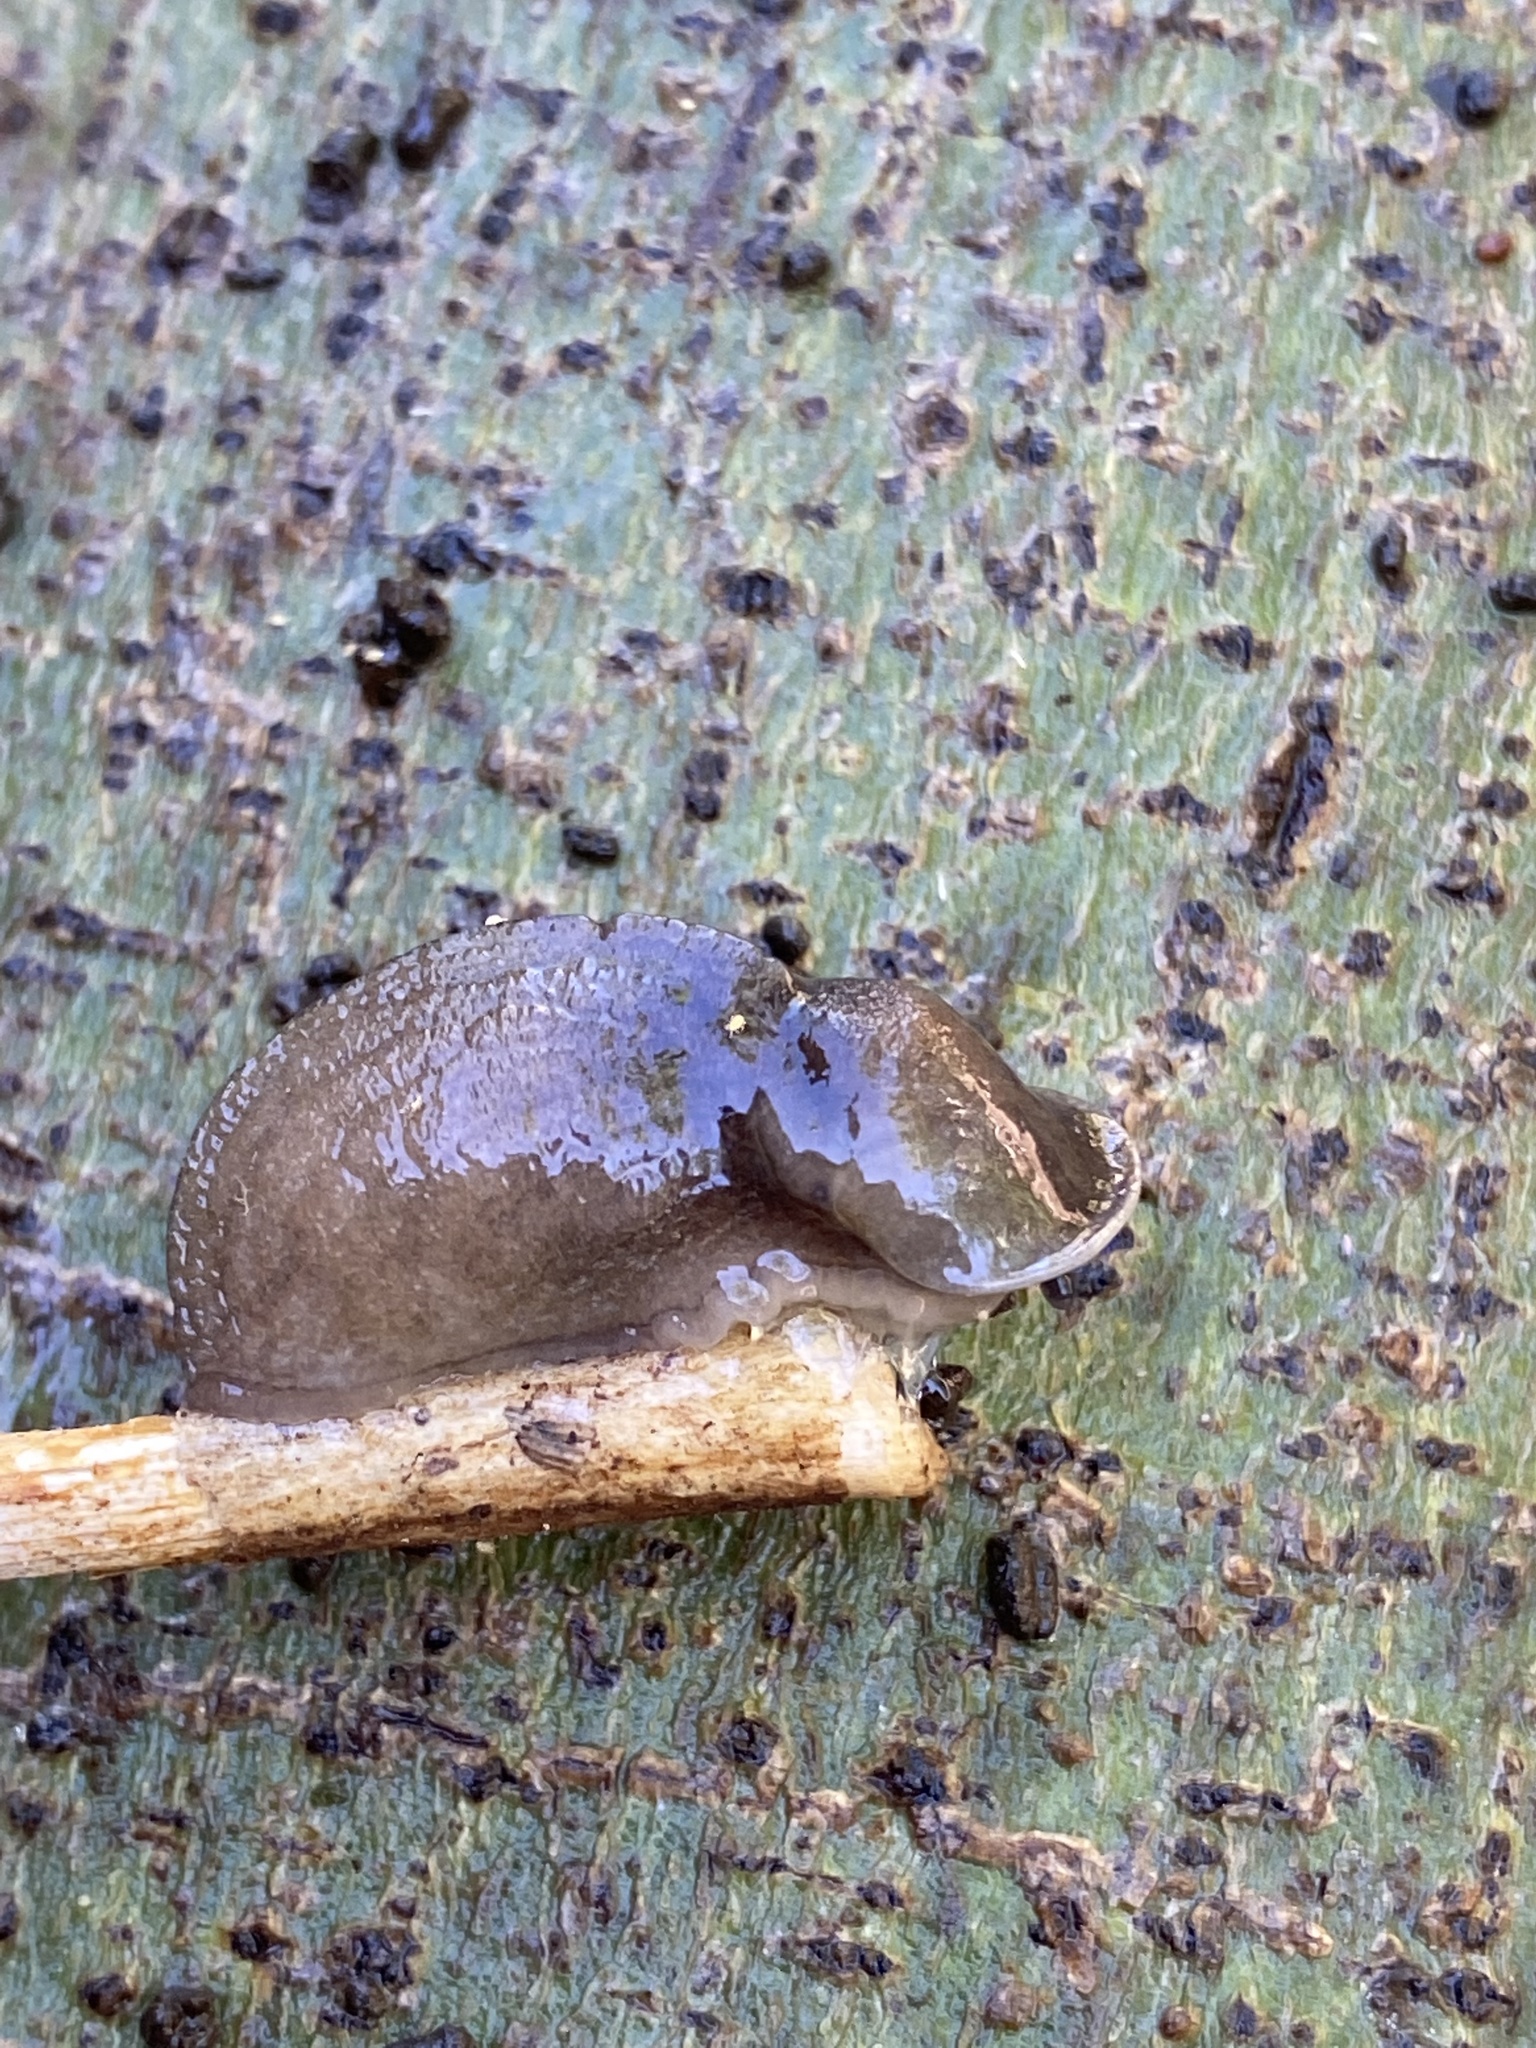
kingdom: Animalia
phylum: Mollusca
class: Gastropoda
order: Stylommatophora
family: Milacidae
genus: Milax
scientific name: Milax gagates
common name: Greenhouse slug
